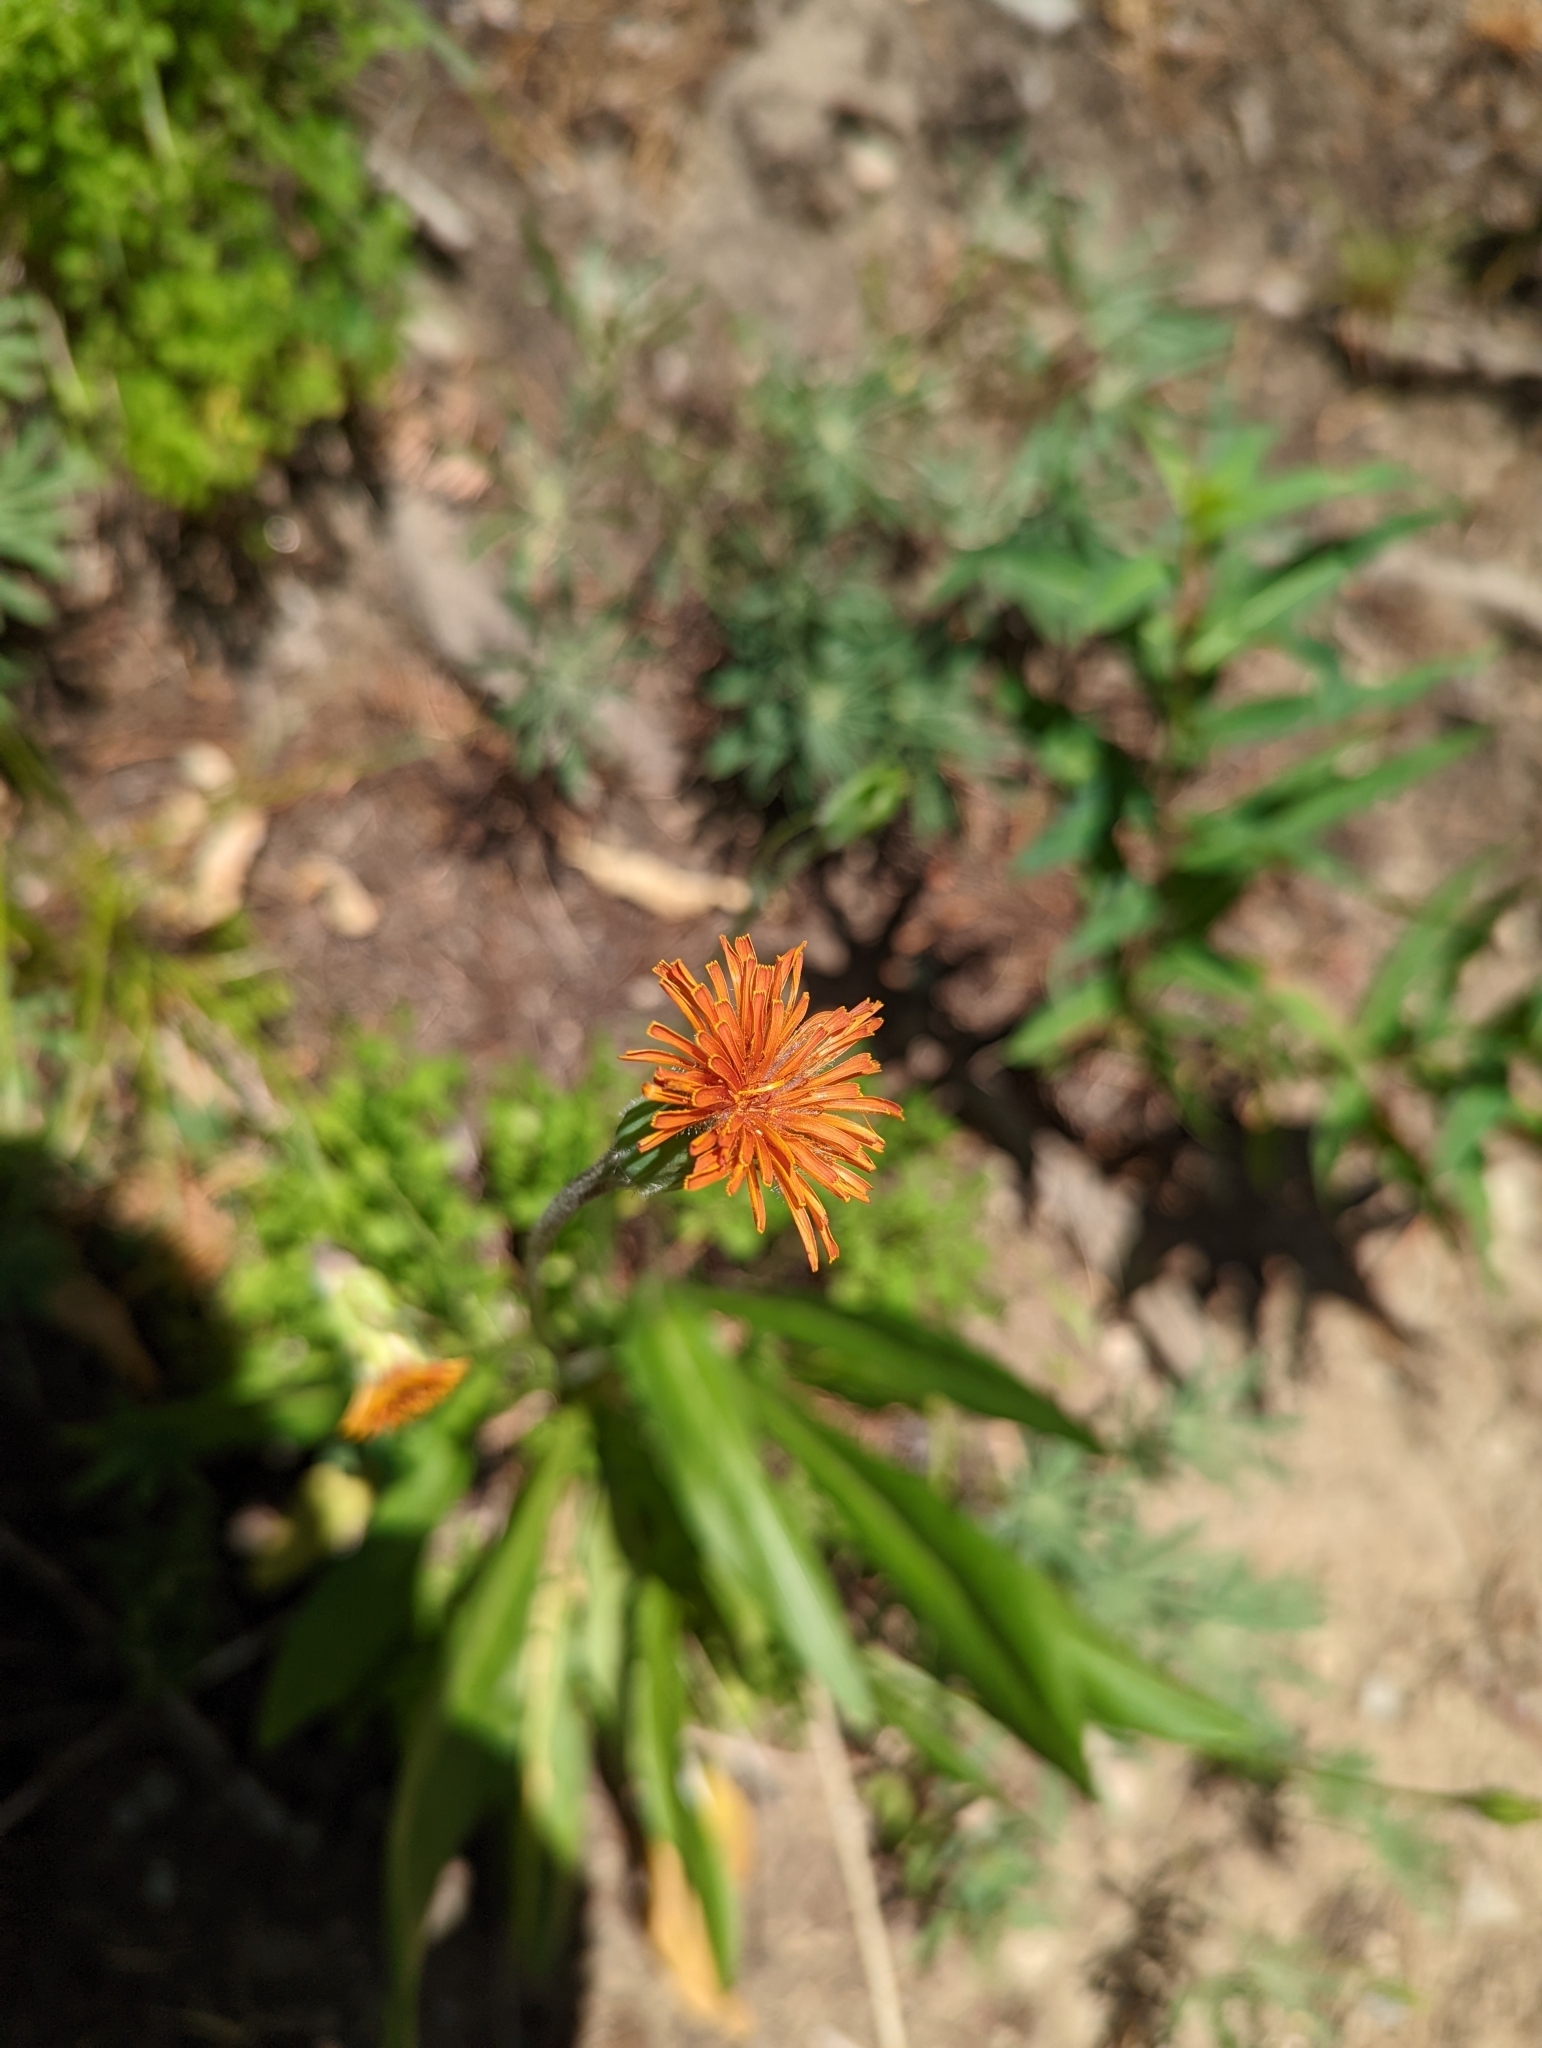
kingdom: Plantae
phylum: Tracheophyta
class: Magnoliopsida
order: Asterales
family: Asteraceae
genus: Agoseris
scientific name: Agoseris aurantiaca
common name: Mountain agoseris
